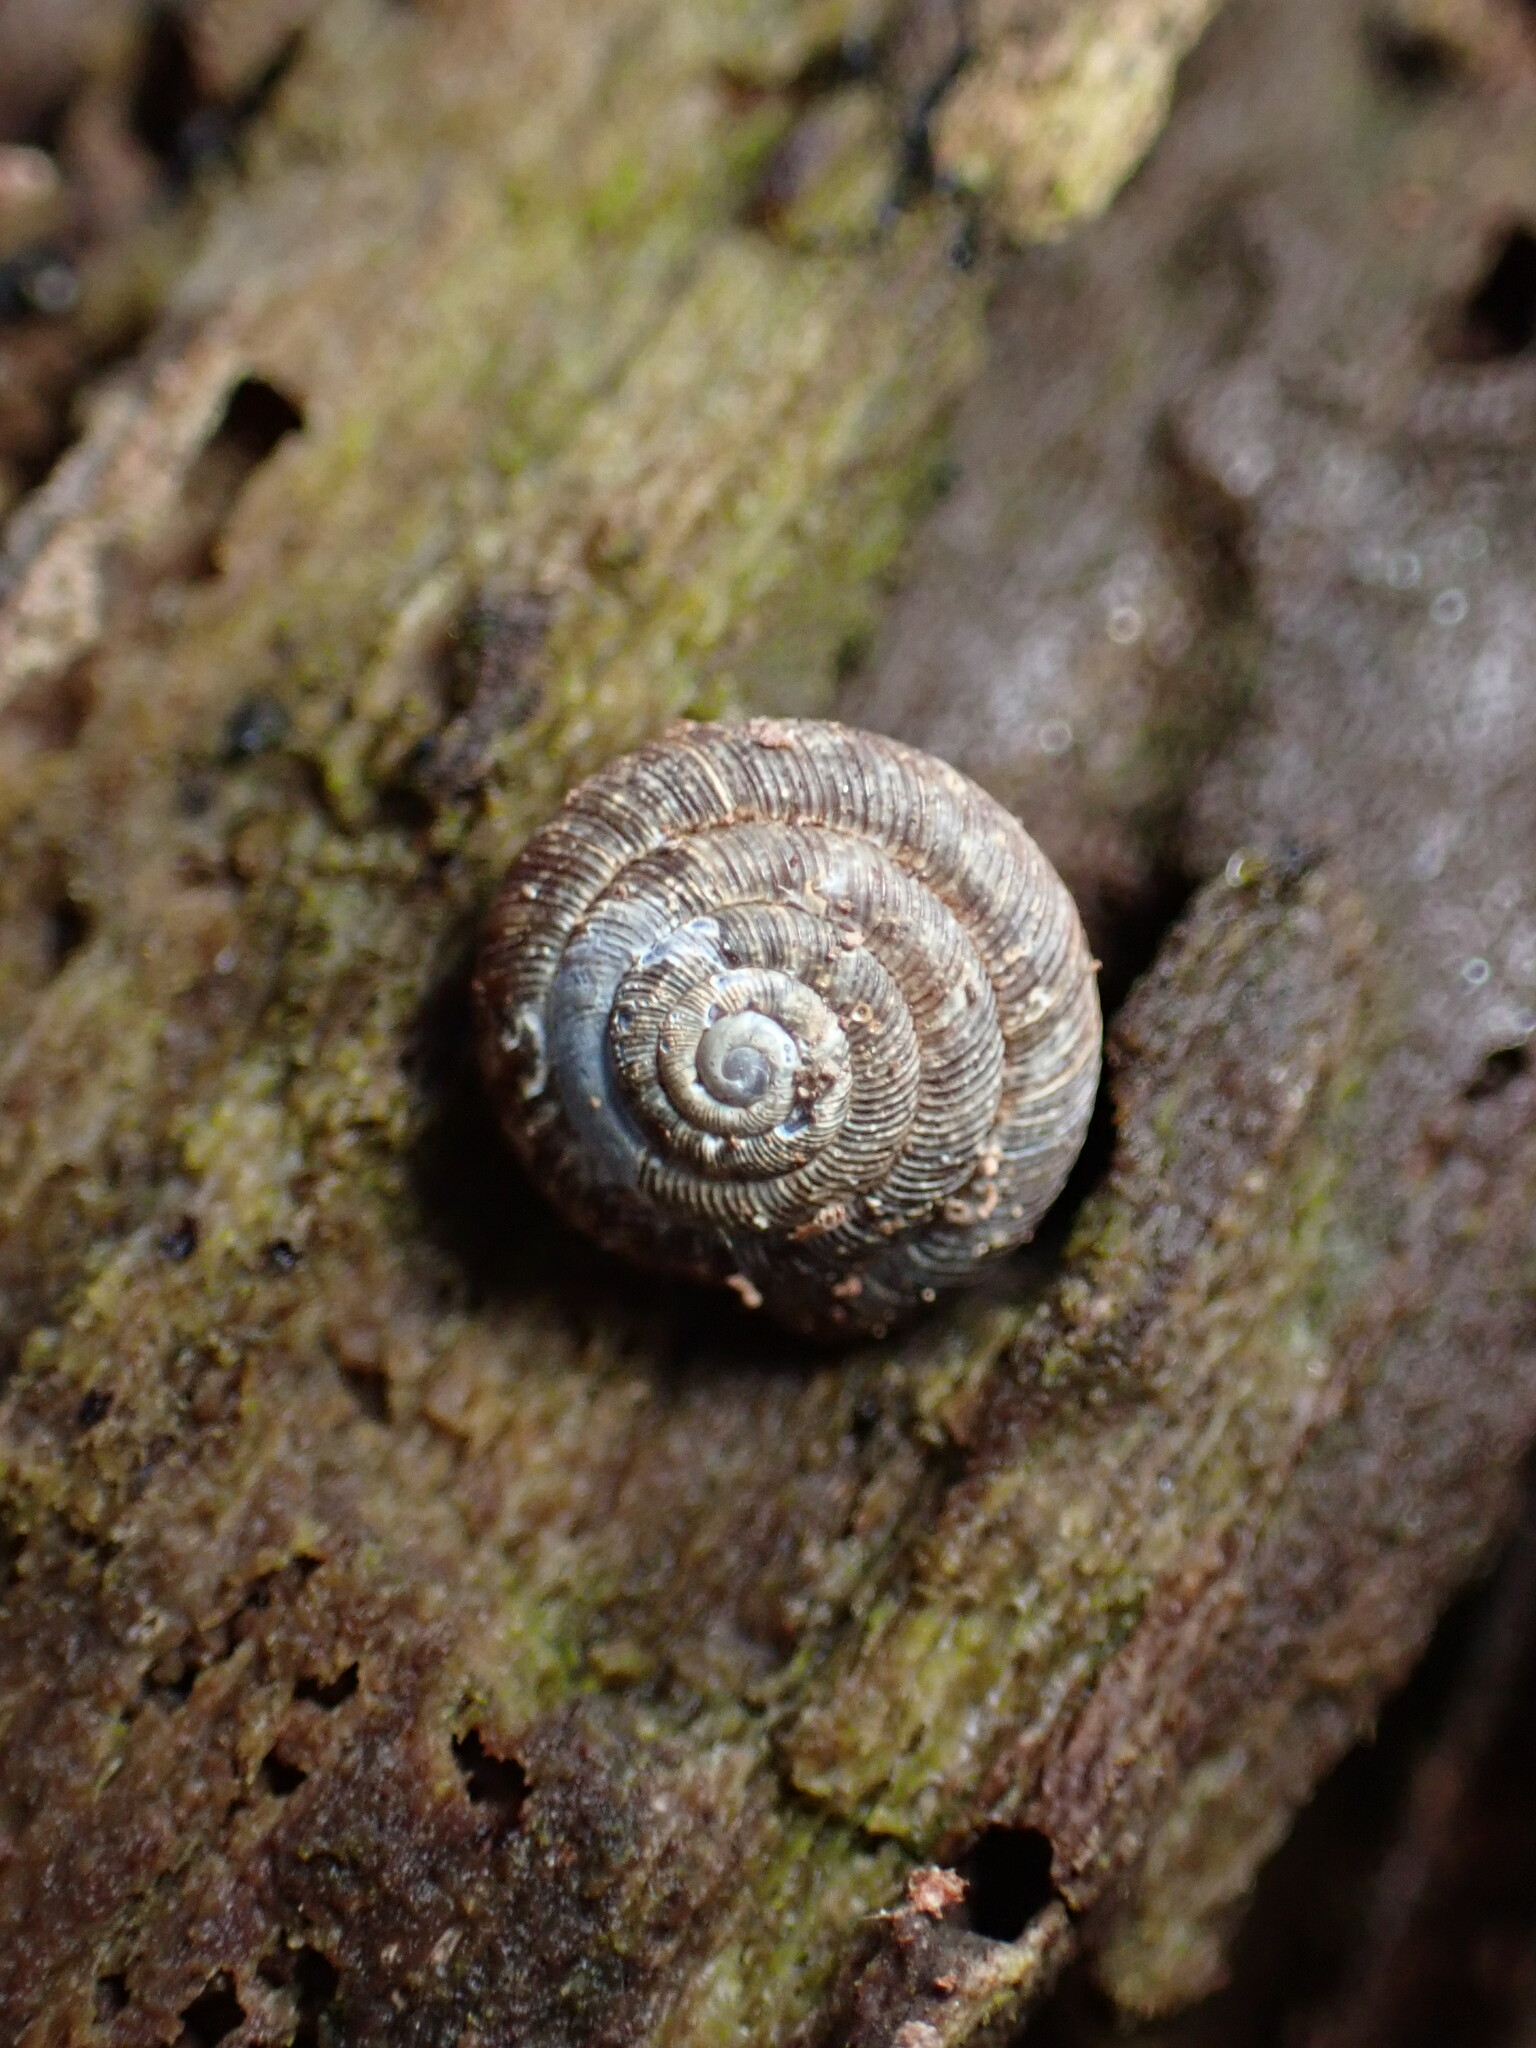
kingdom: Animalia
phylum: Mollusca
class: Gastropoda
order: Stylommatophora
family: Discidae
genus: Discus
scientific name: Discus rotundatus
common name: Rounded snail
